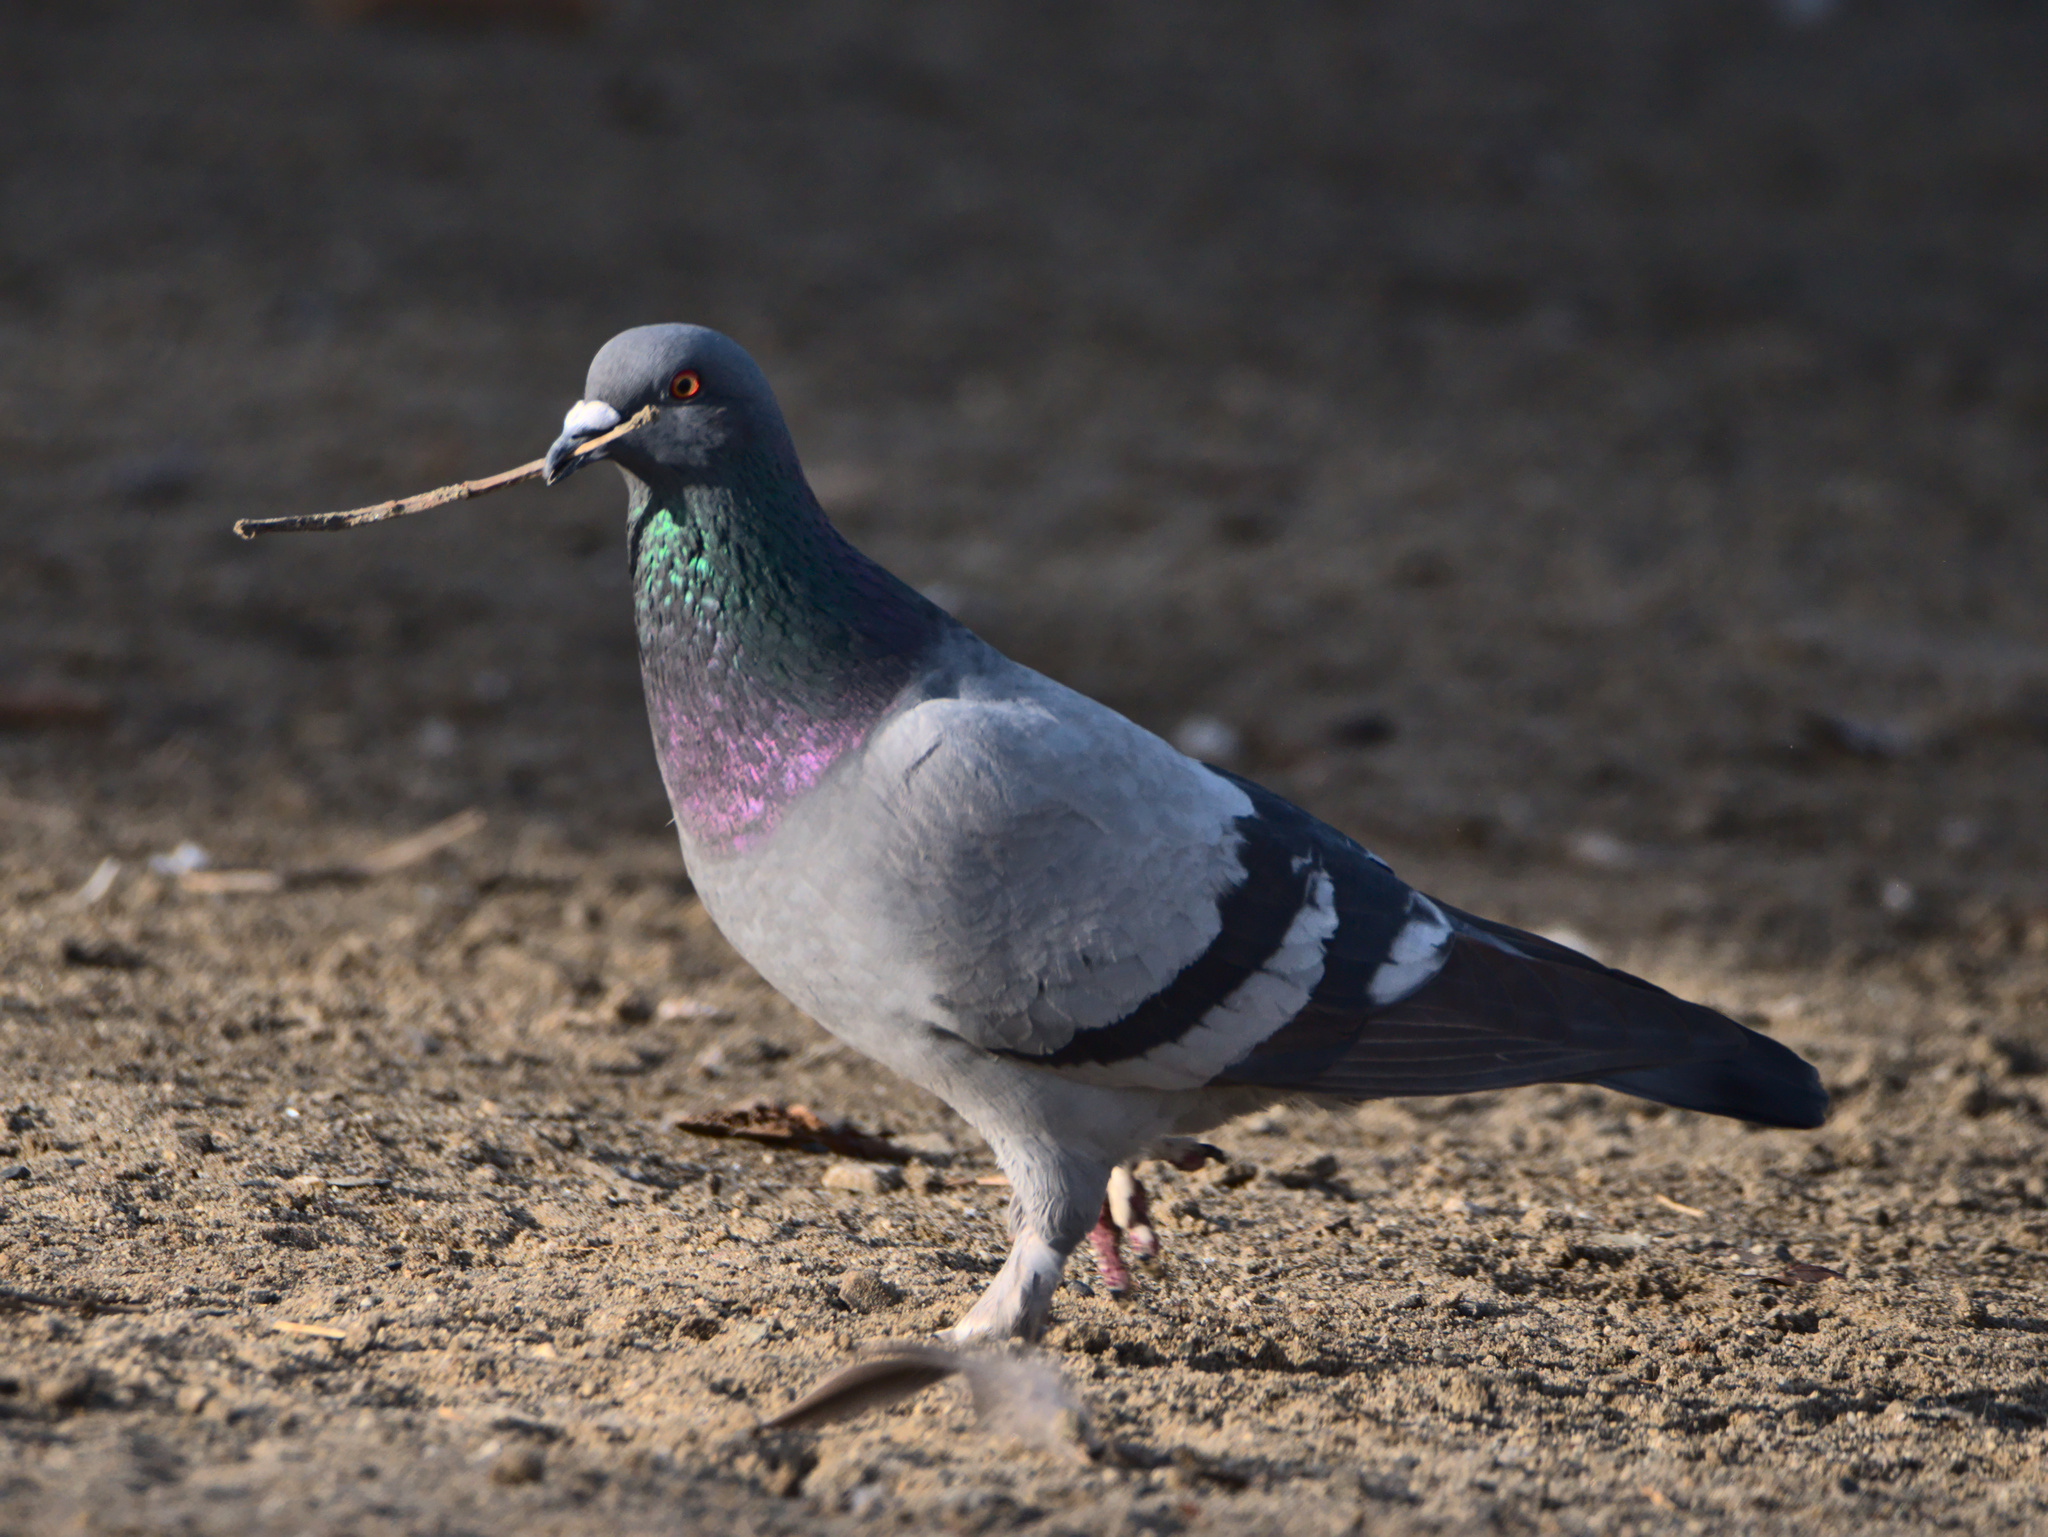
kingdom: Animalia
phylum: Chordata
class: Aves
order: Columbiformes
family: Columbidae
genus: Columba
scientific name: Columba livia
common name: Rock pigeon
